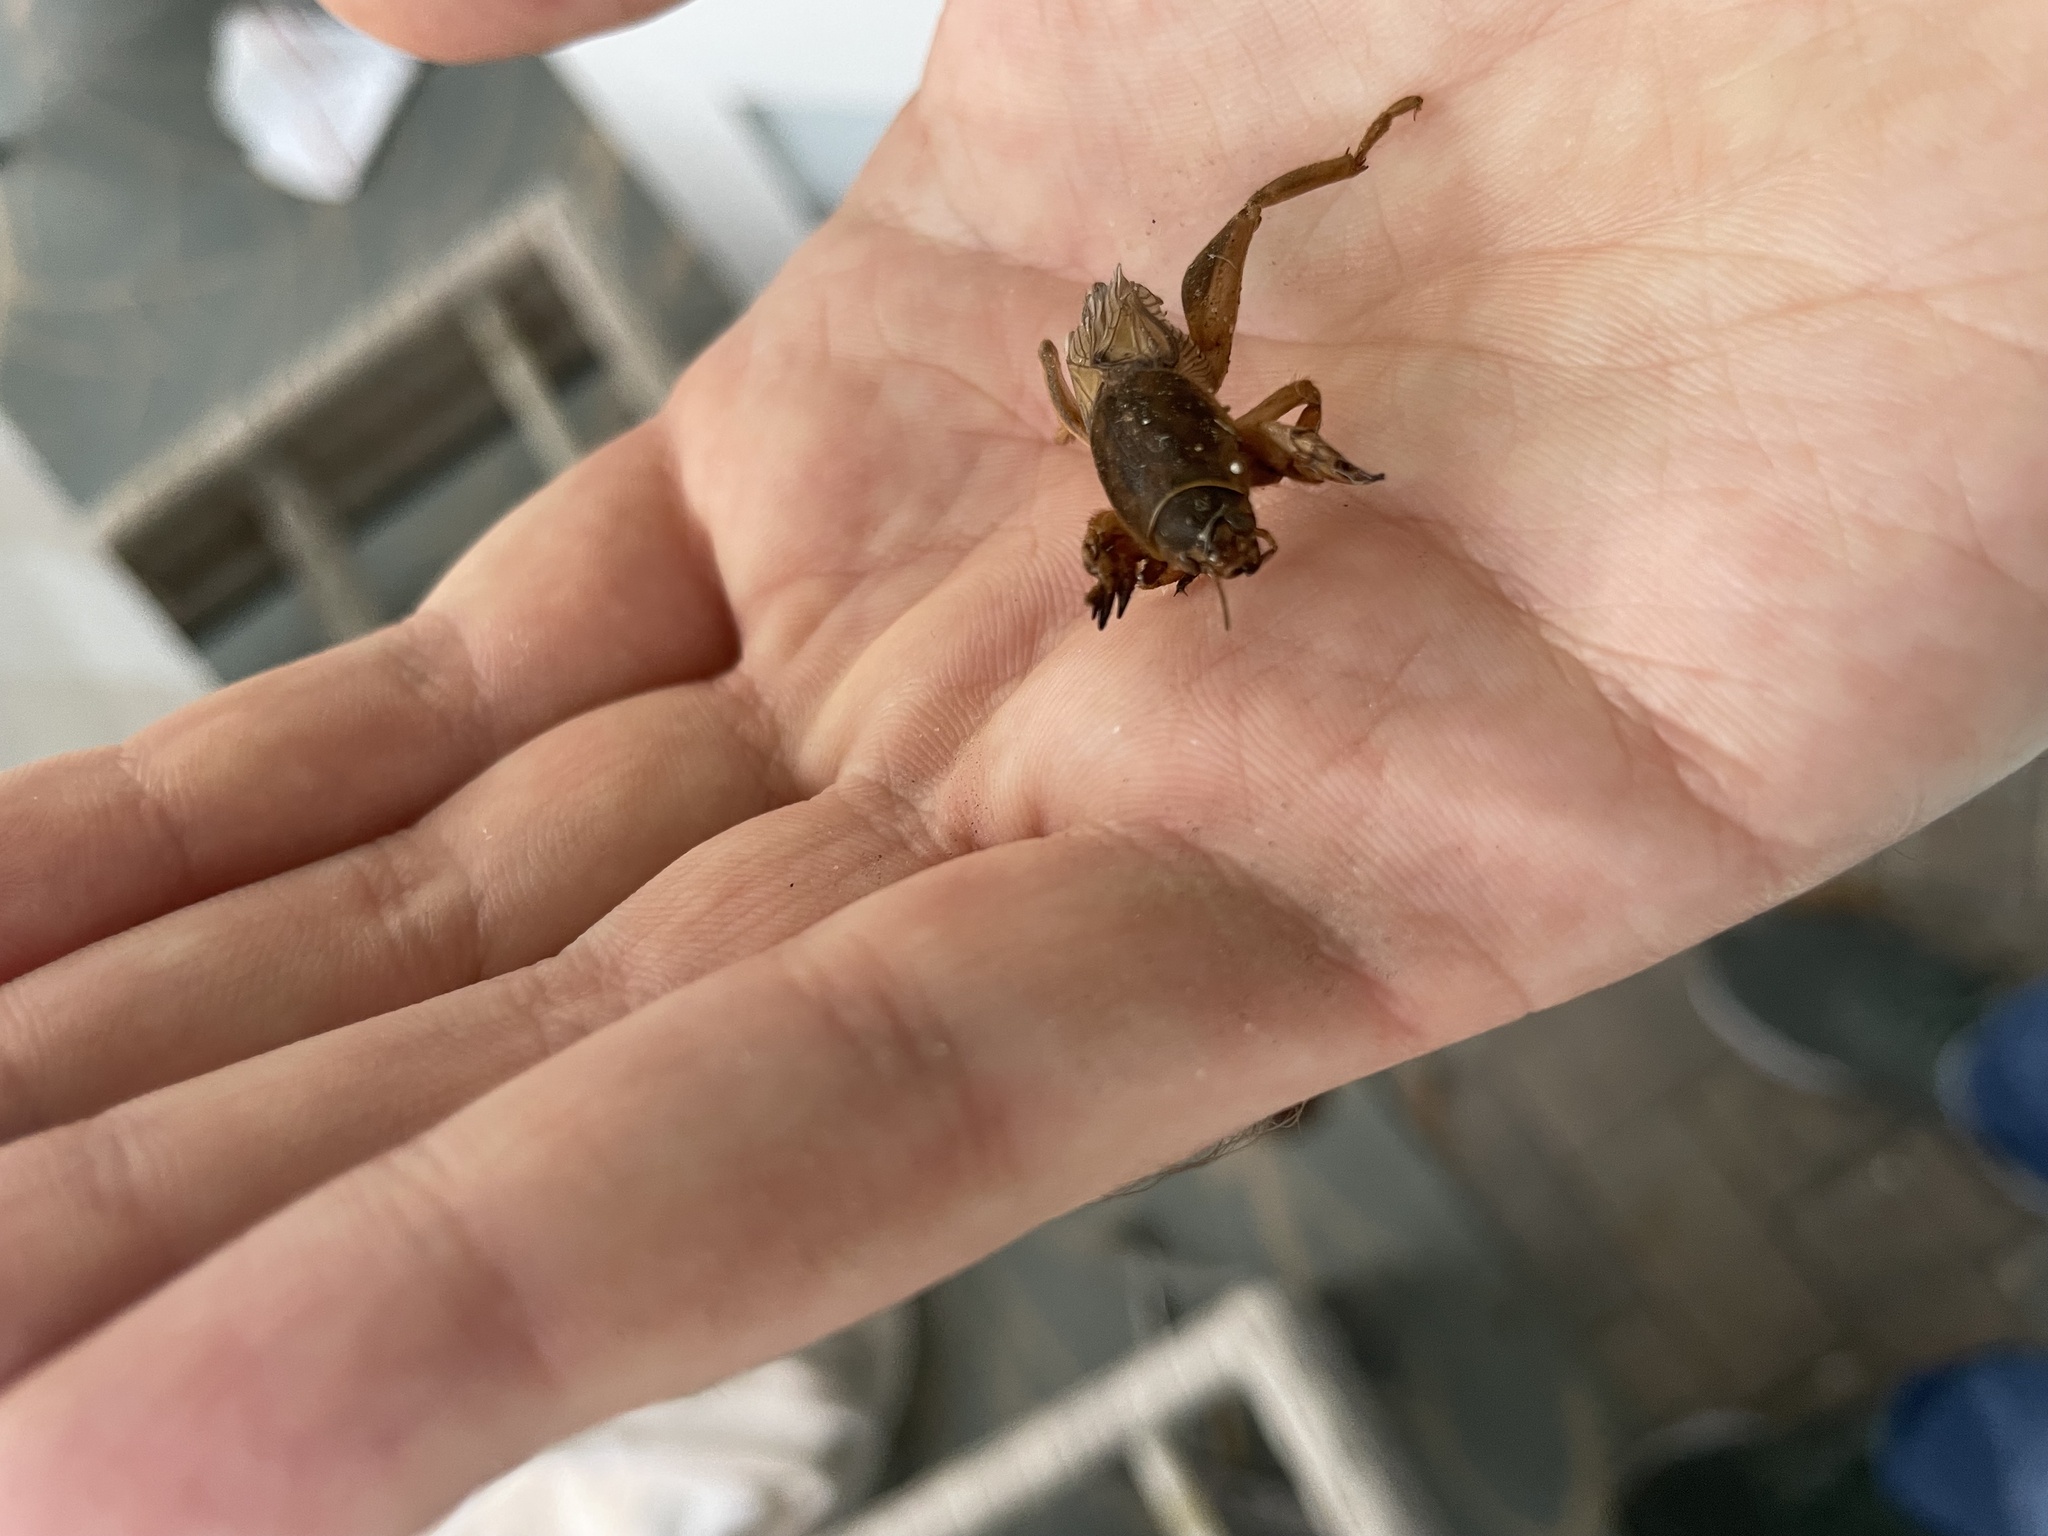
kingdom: Animalia
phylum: Arthropoda
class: Insecta
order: Orthoptera
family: Gryllotalpidae
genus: Neoscapteriscus
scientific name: Neoscapteriscus vicinus
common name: Tawny mole cricket
